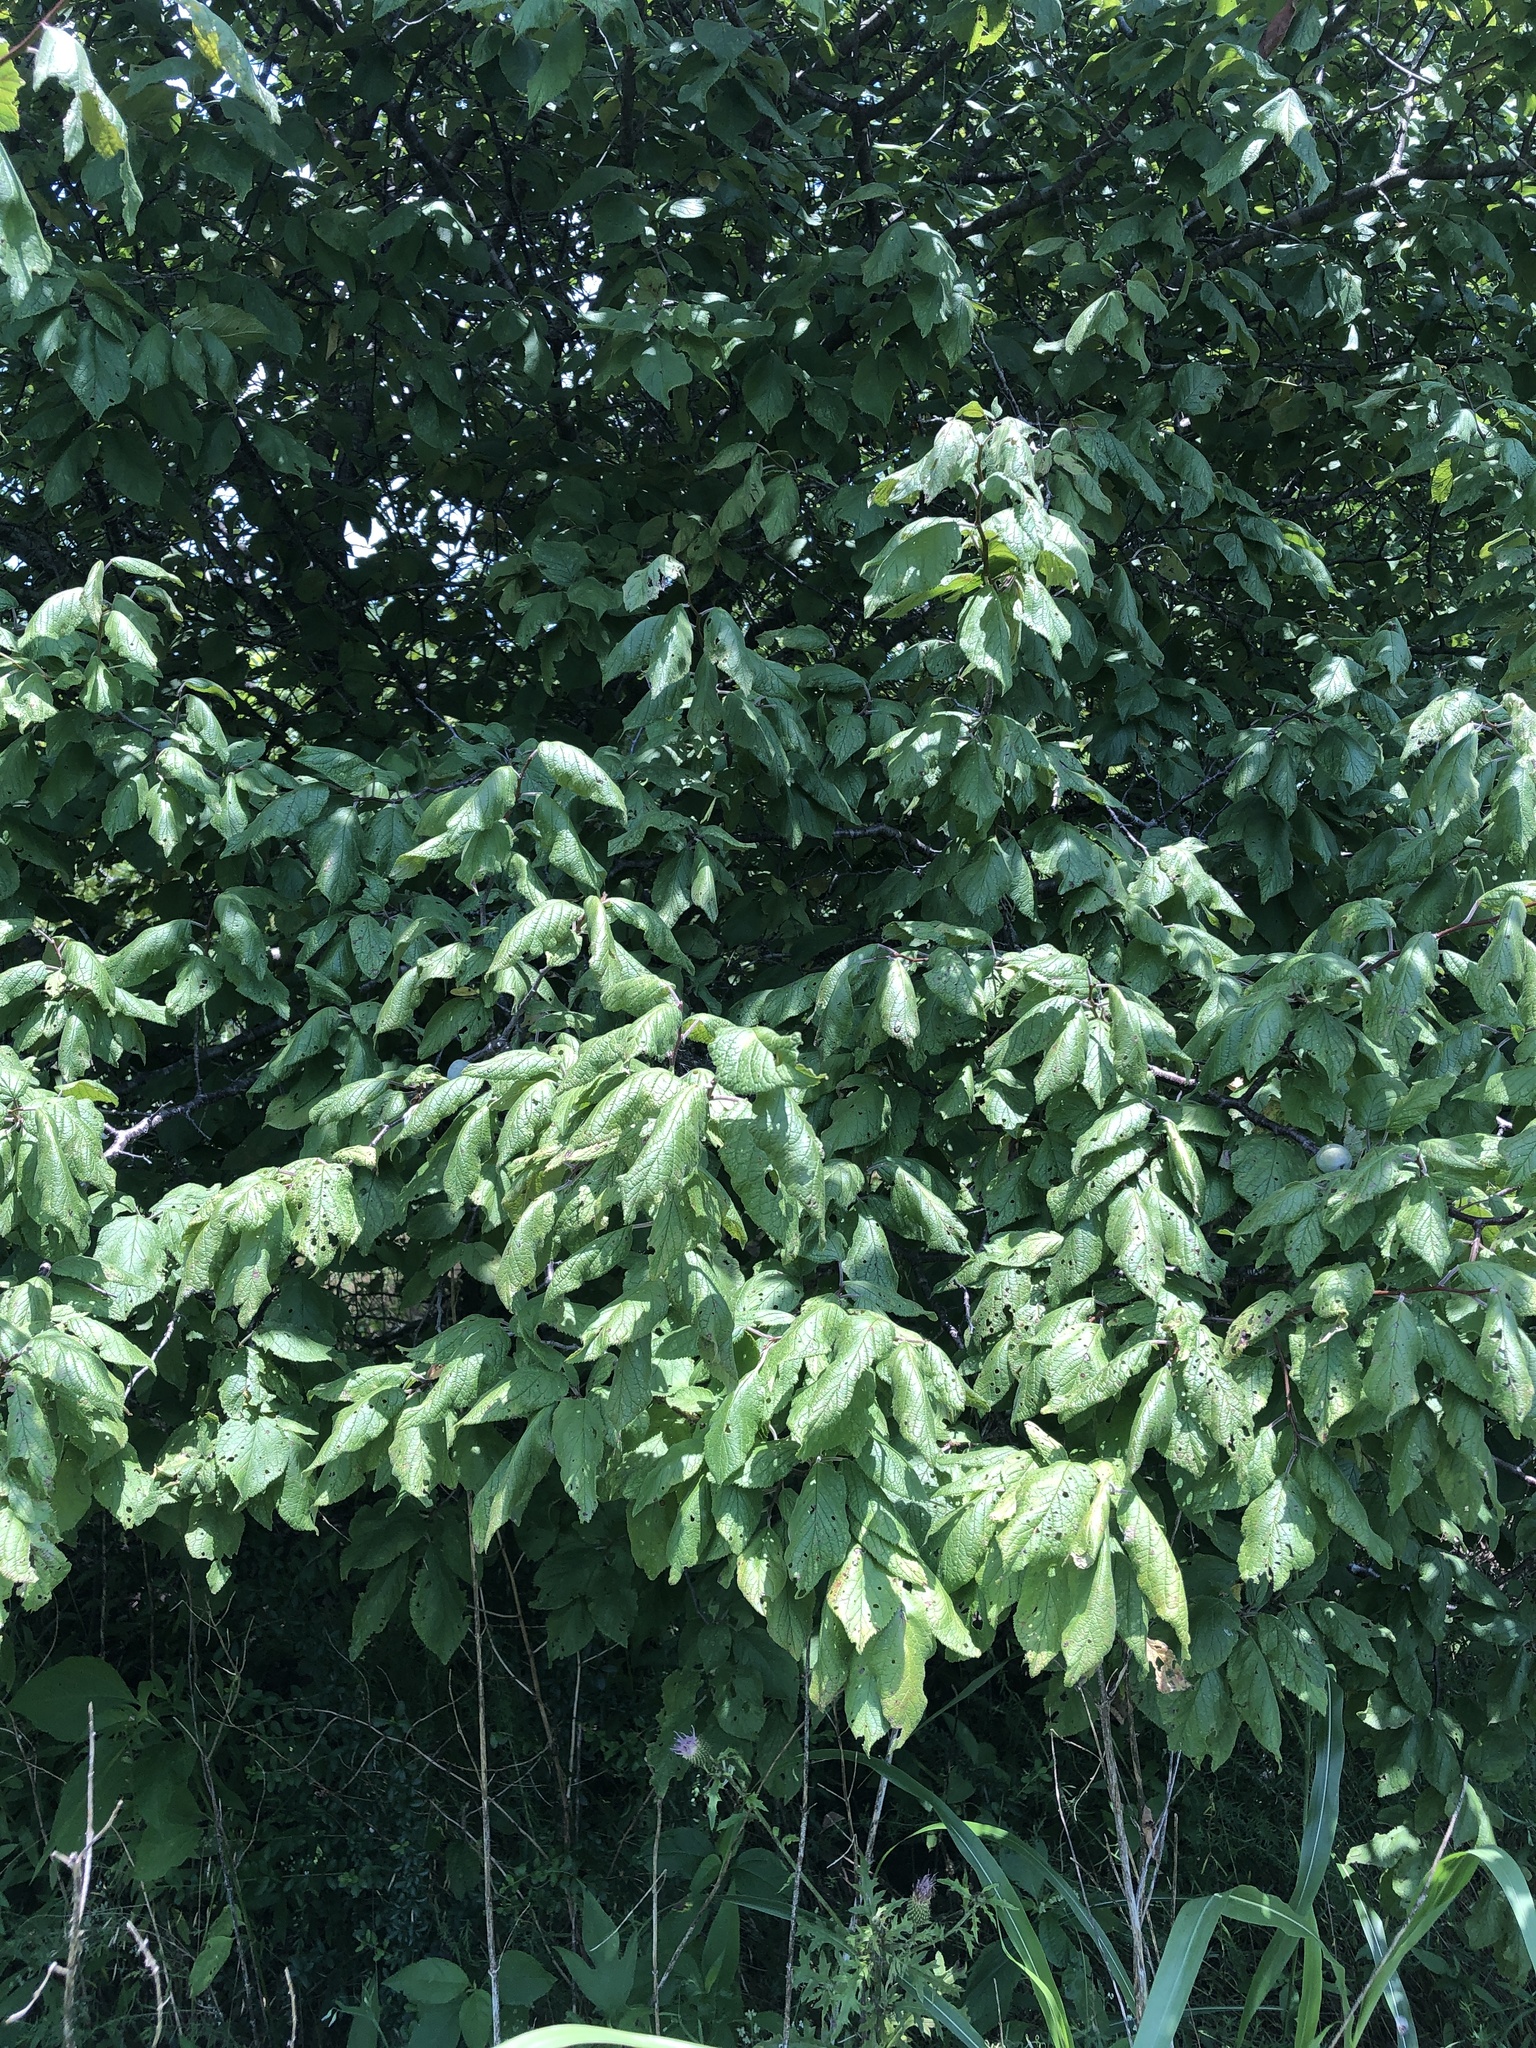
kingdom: Plantae
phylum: Tracheophyta
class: Magnoliopsida
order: Rosales
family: Rosaceae
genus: Prunus
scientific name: Prunus mexicana
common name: Mexican plum
